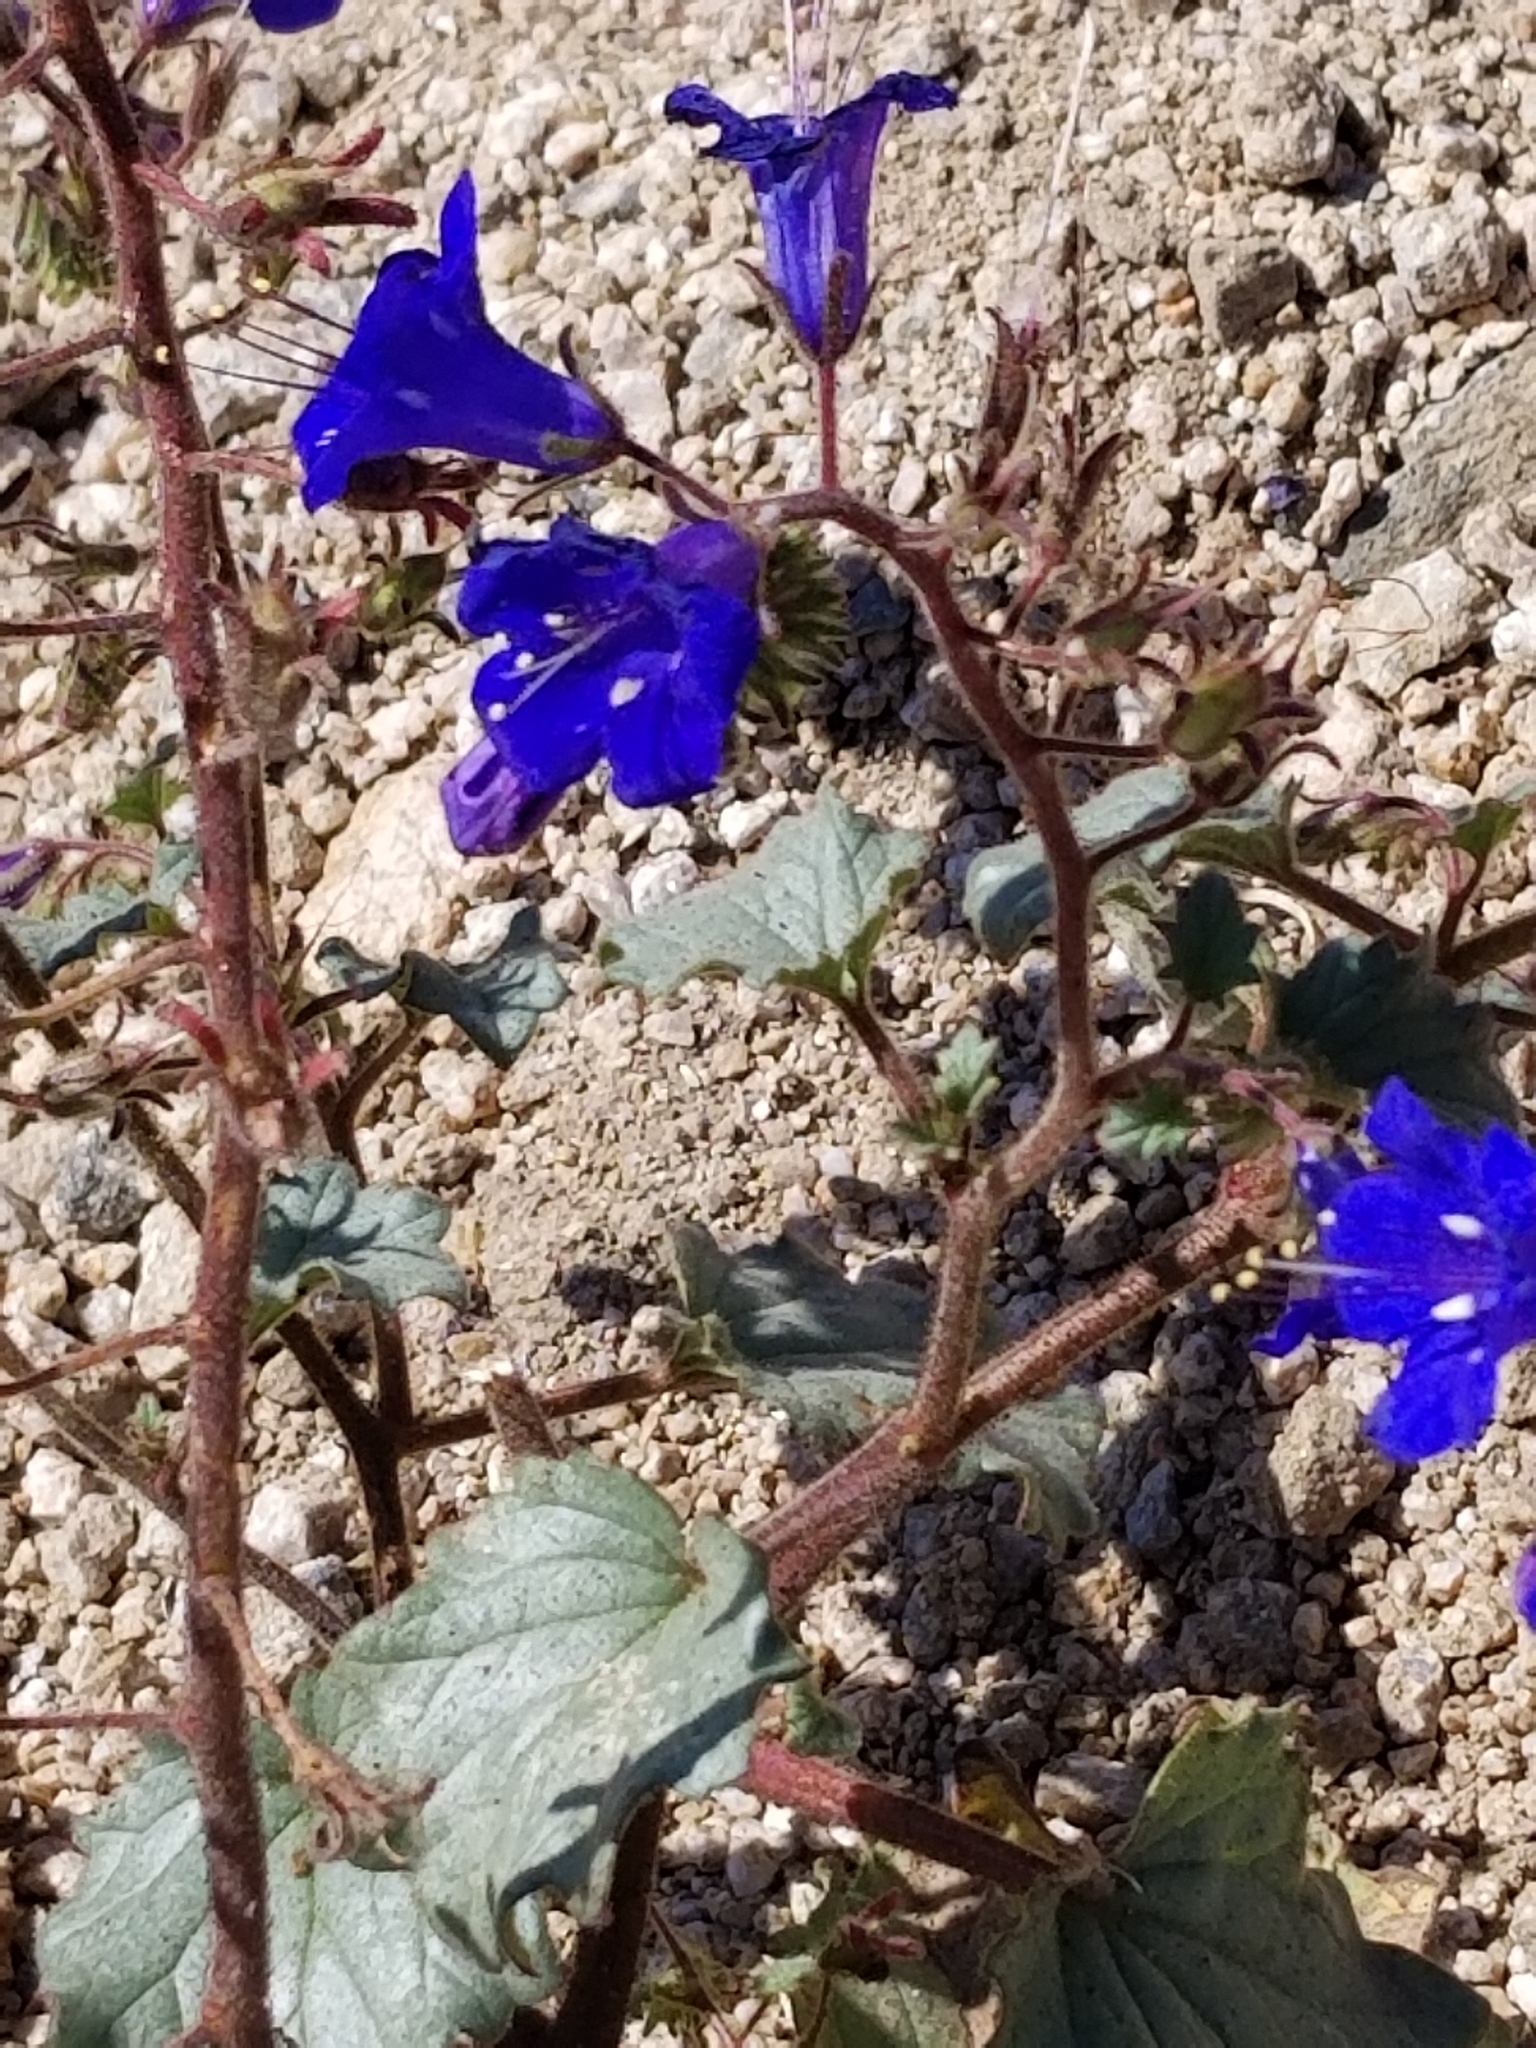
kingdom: Plantae
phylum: Tracheophyta
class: Magnoliopsida
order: Boraginales
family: Hydrophyllaceae
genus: Phacelia
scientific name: Phacelia campanularia
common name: California bluebell
